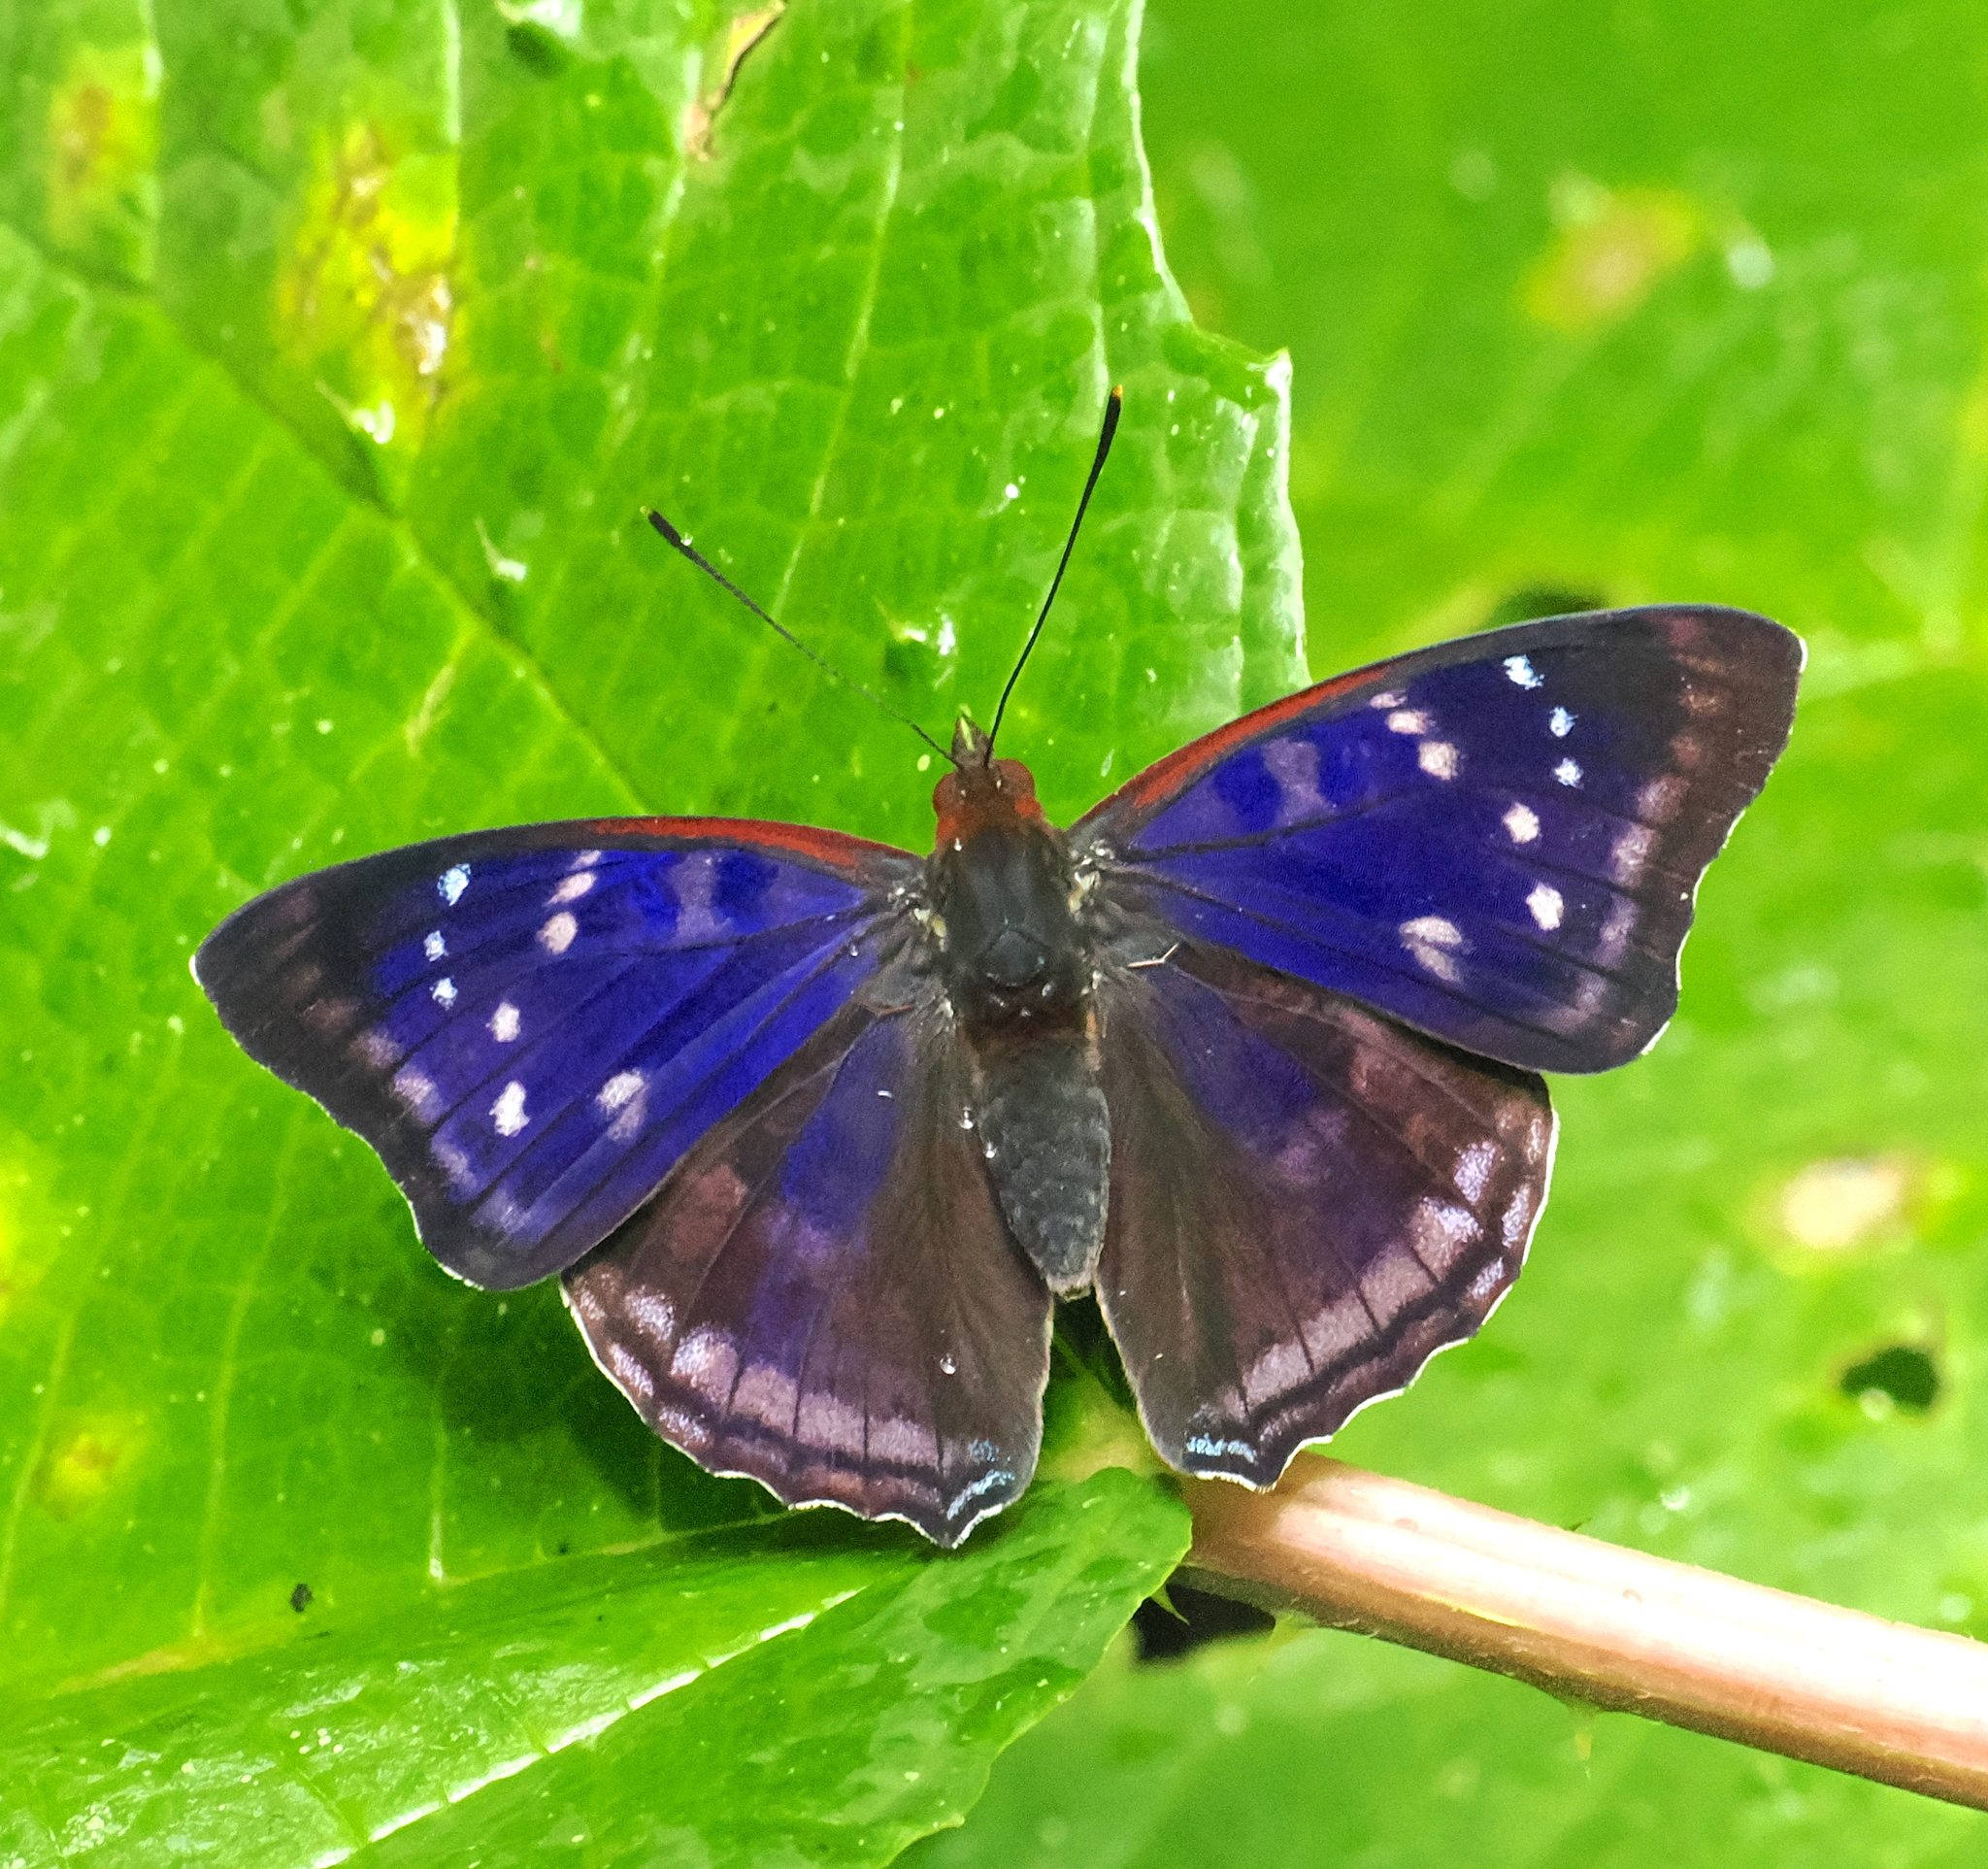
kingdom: Animalia
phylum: Arthropoda
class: Insecta
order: Lepidoptera
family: Nymphalidae
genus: Doxocopa
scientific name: Doxocopa zunilda
